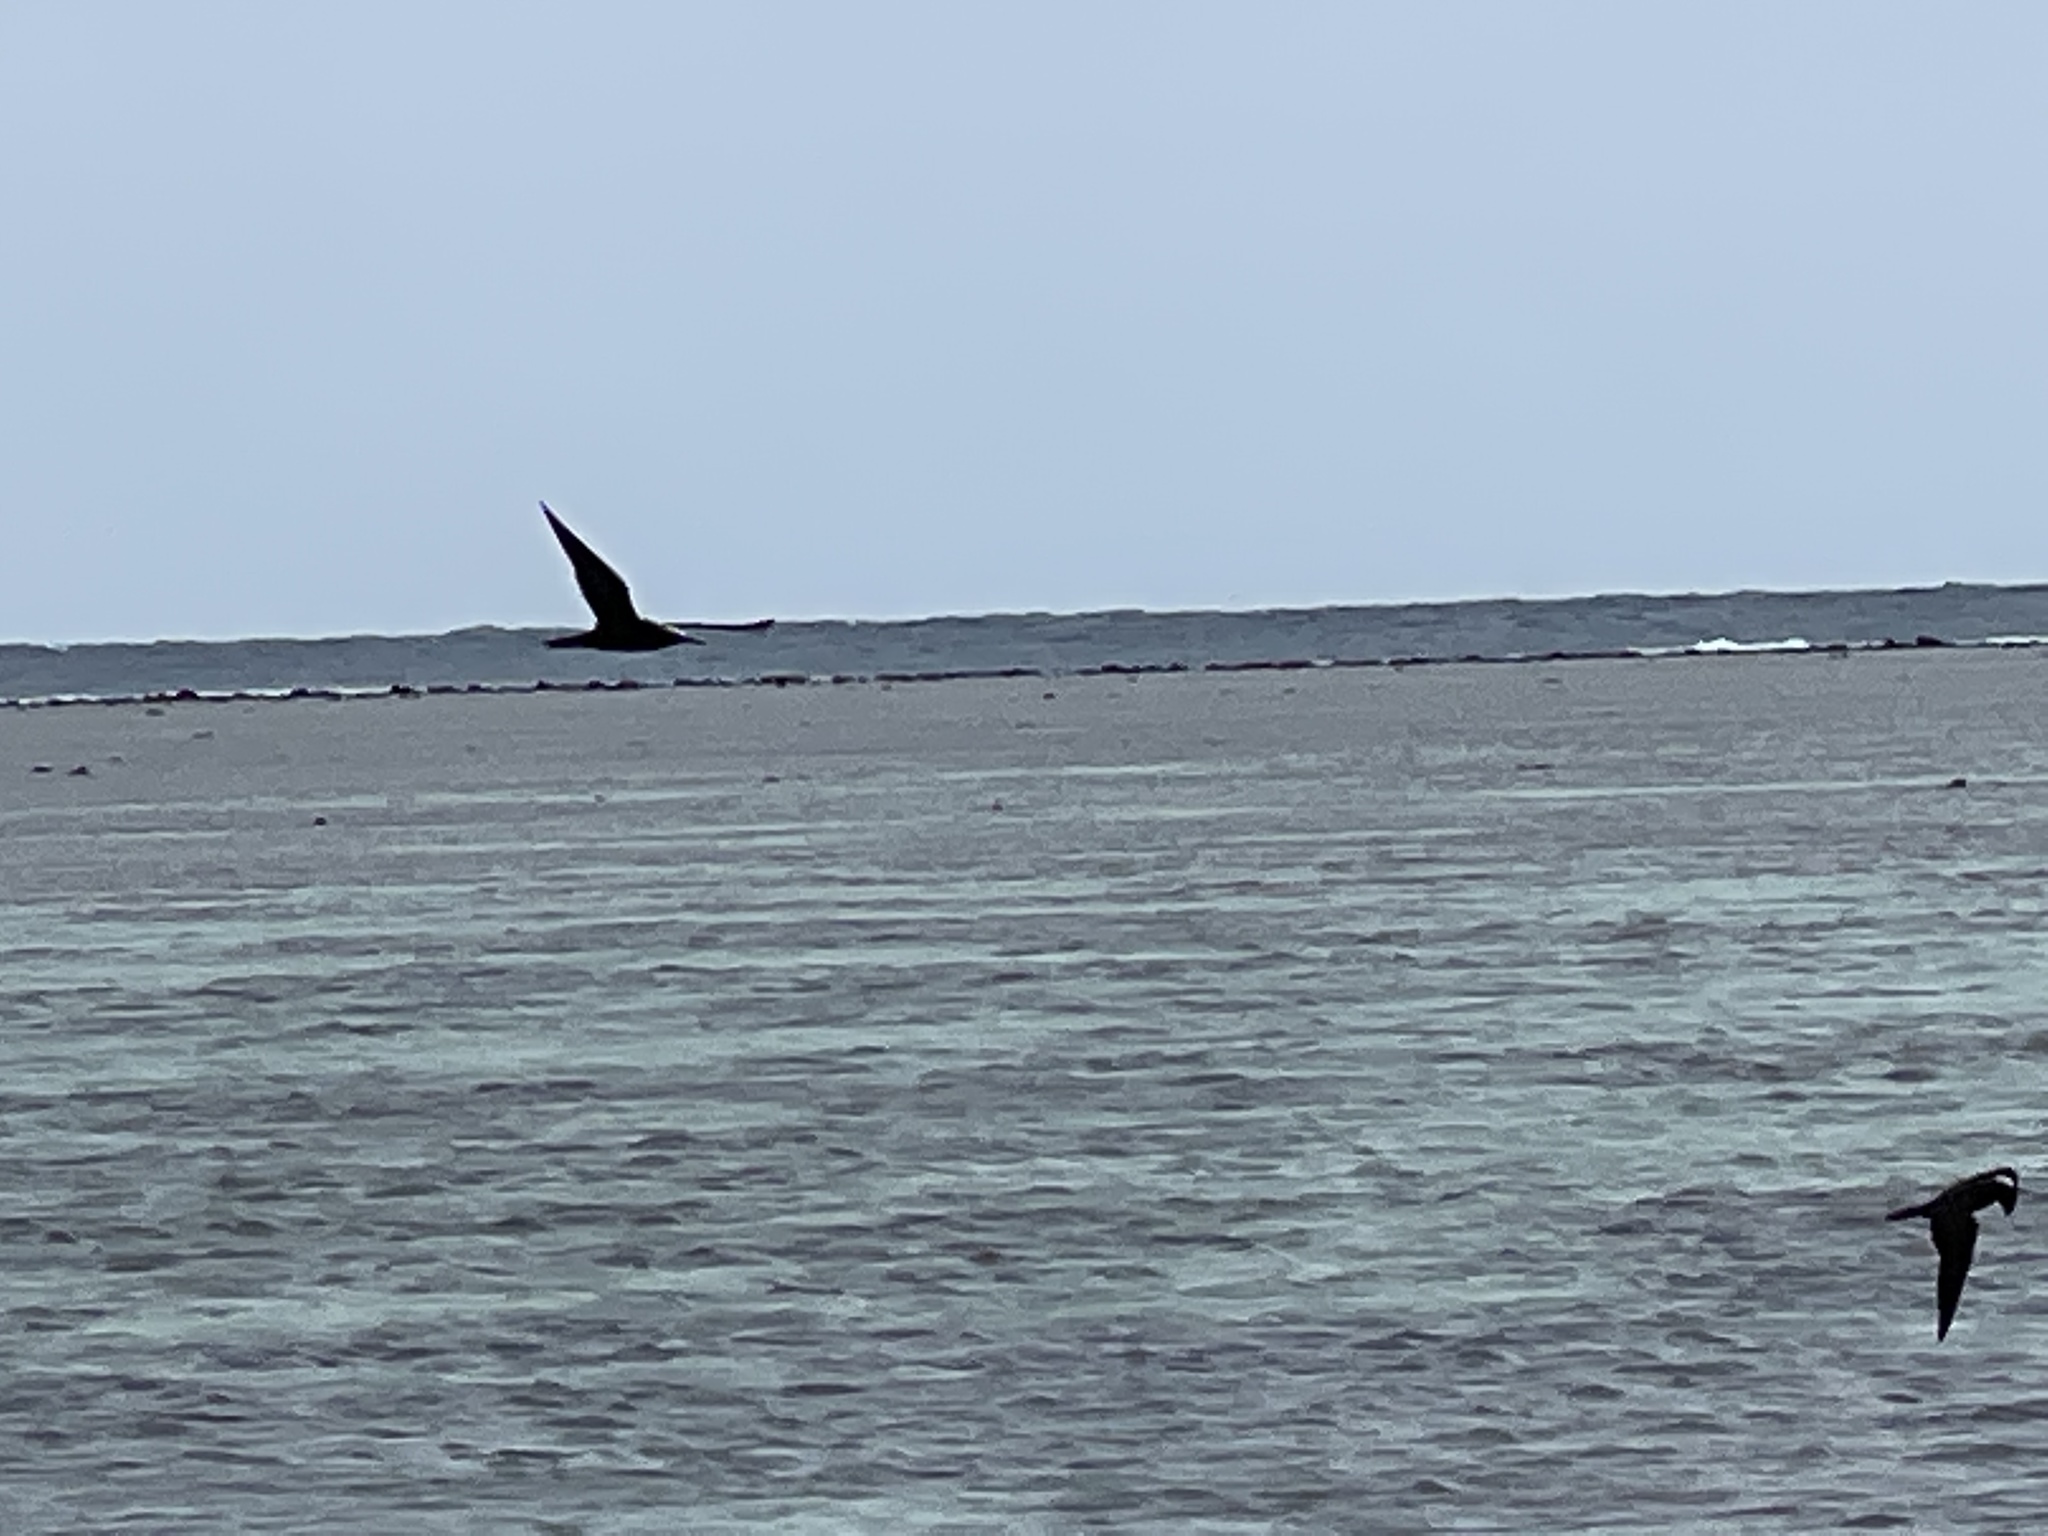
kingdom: Animalia
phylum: Chordata
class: Aves
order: Charadriiformes
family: Laridae
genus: Anous
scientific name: Anous minutus
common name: Black noddy
